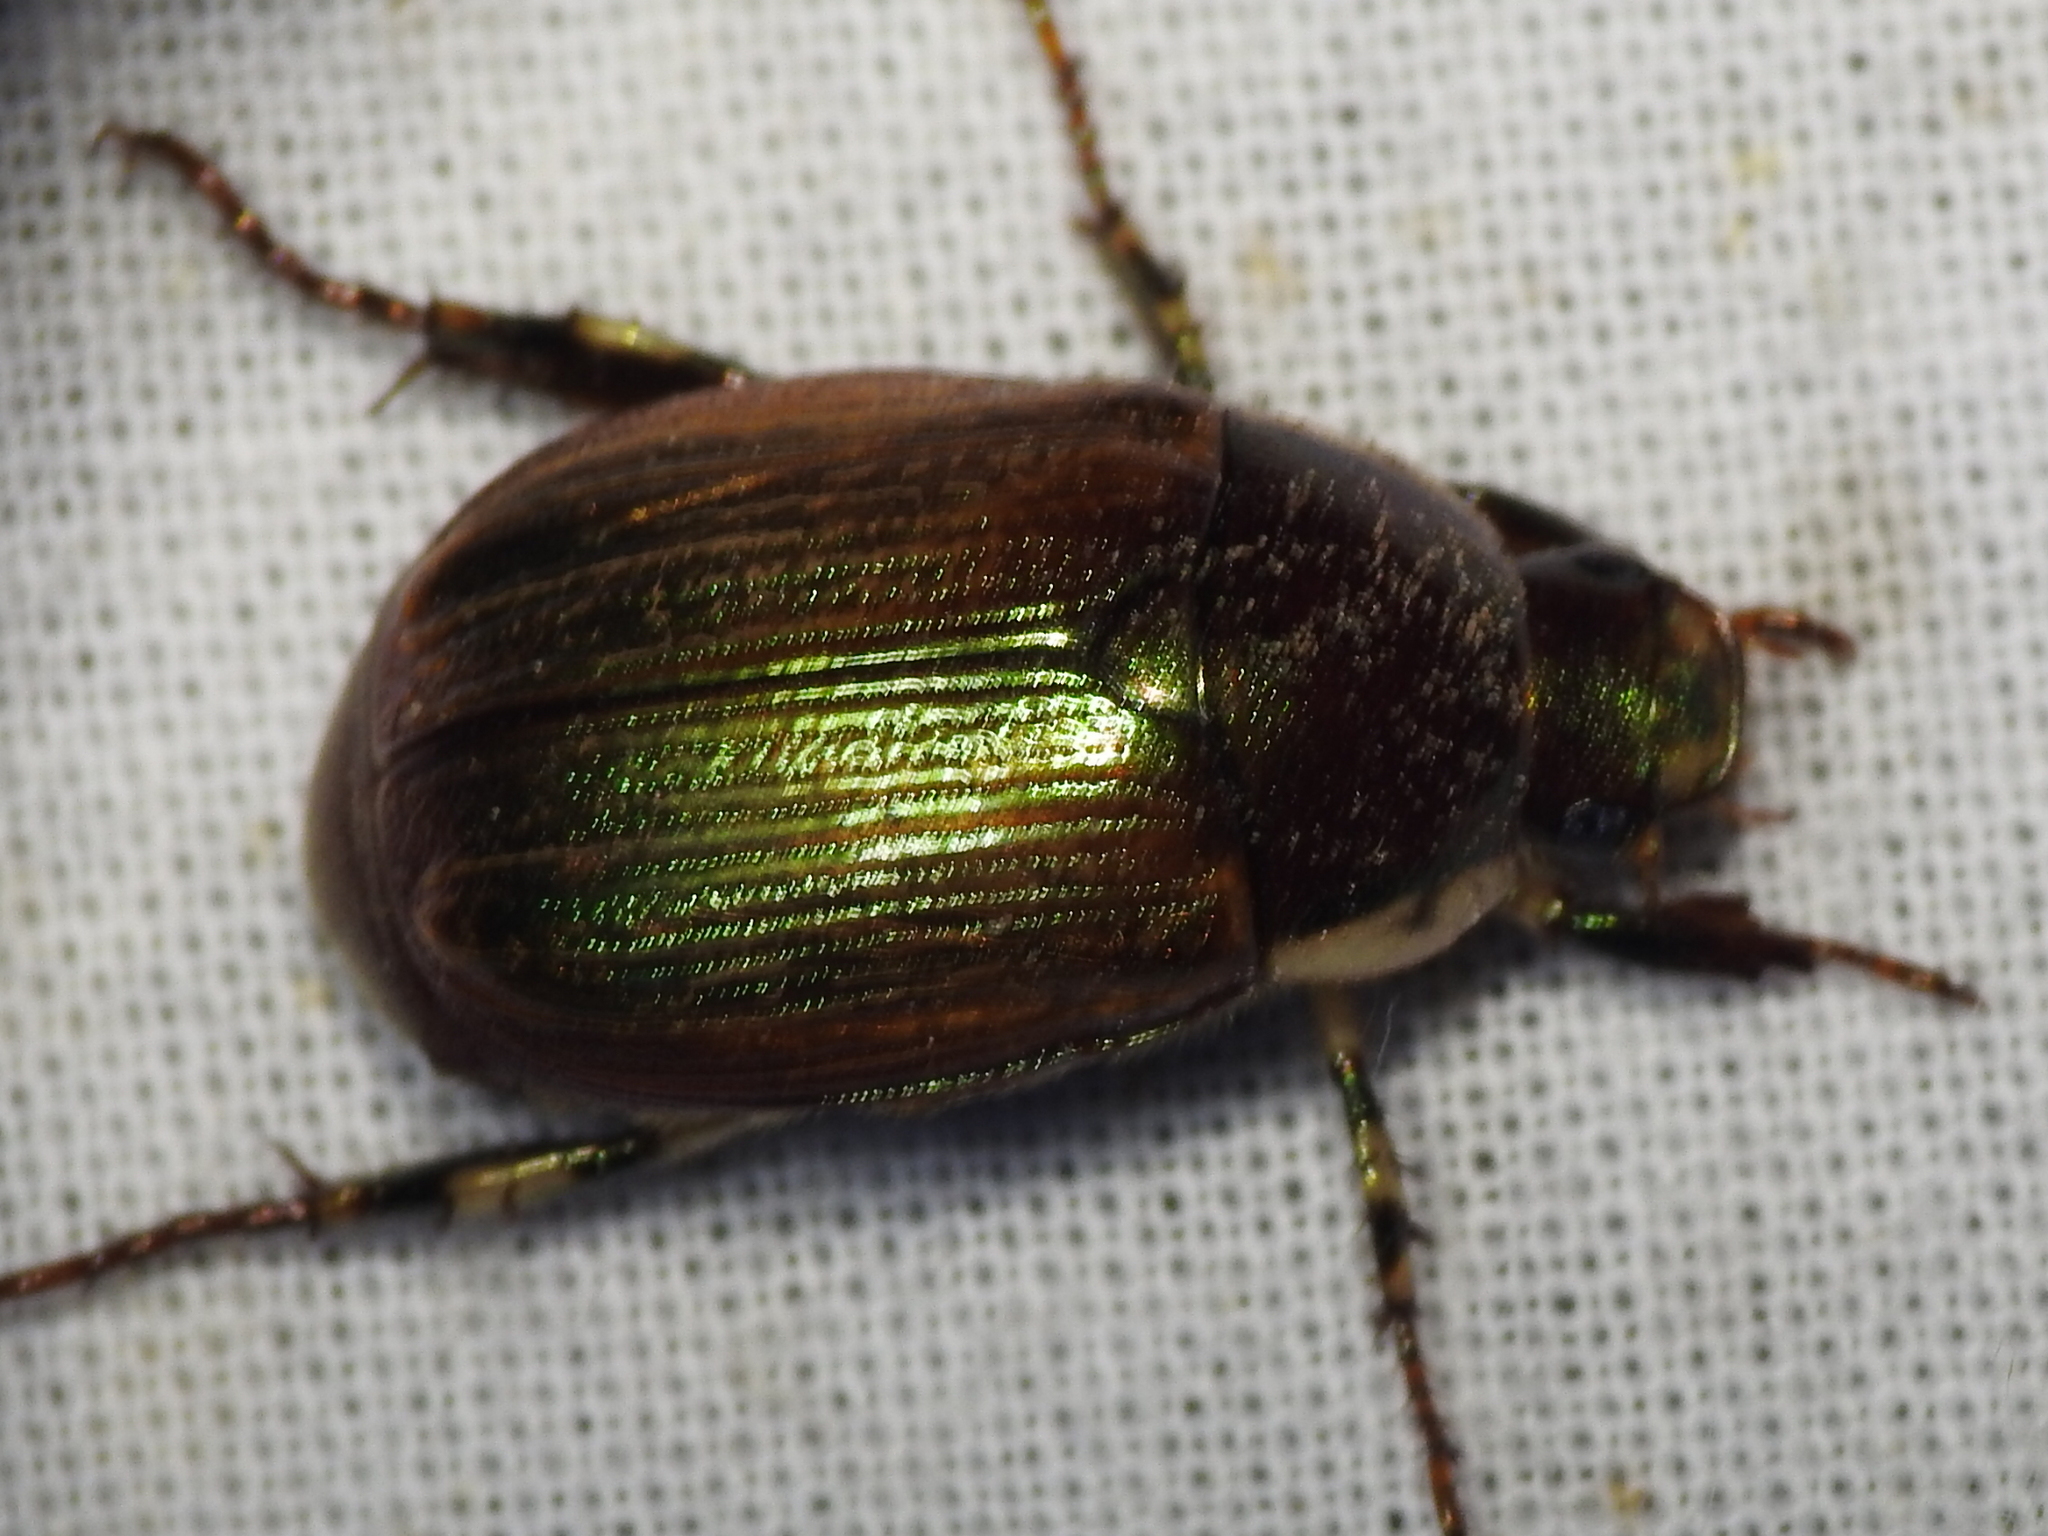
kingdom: Animalia
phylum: Arthropoda
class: Insecta
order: Coleoptera
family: Scarabaeidae
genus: Callistethus
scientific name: Callistethus marginatus
